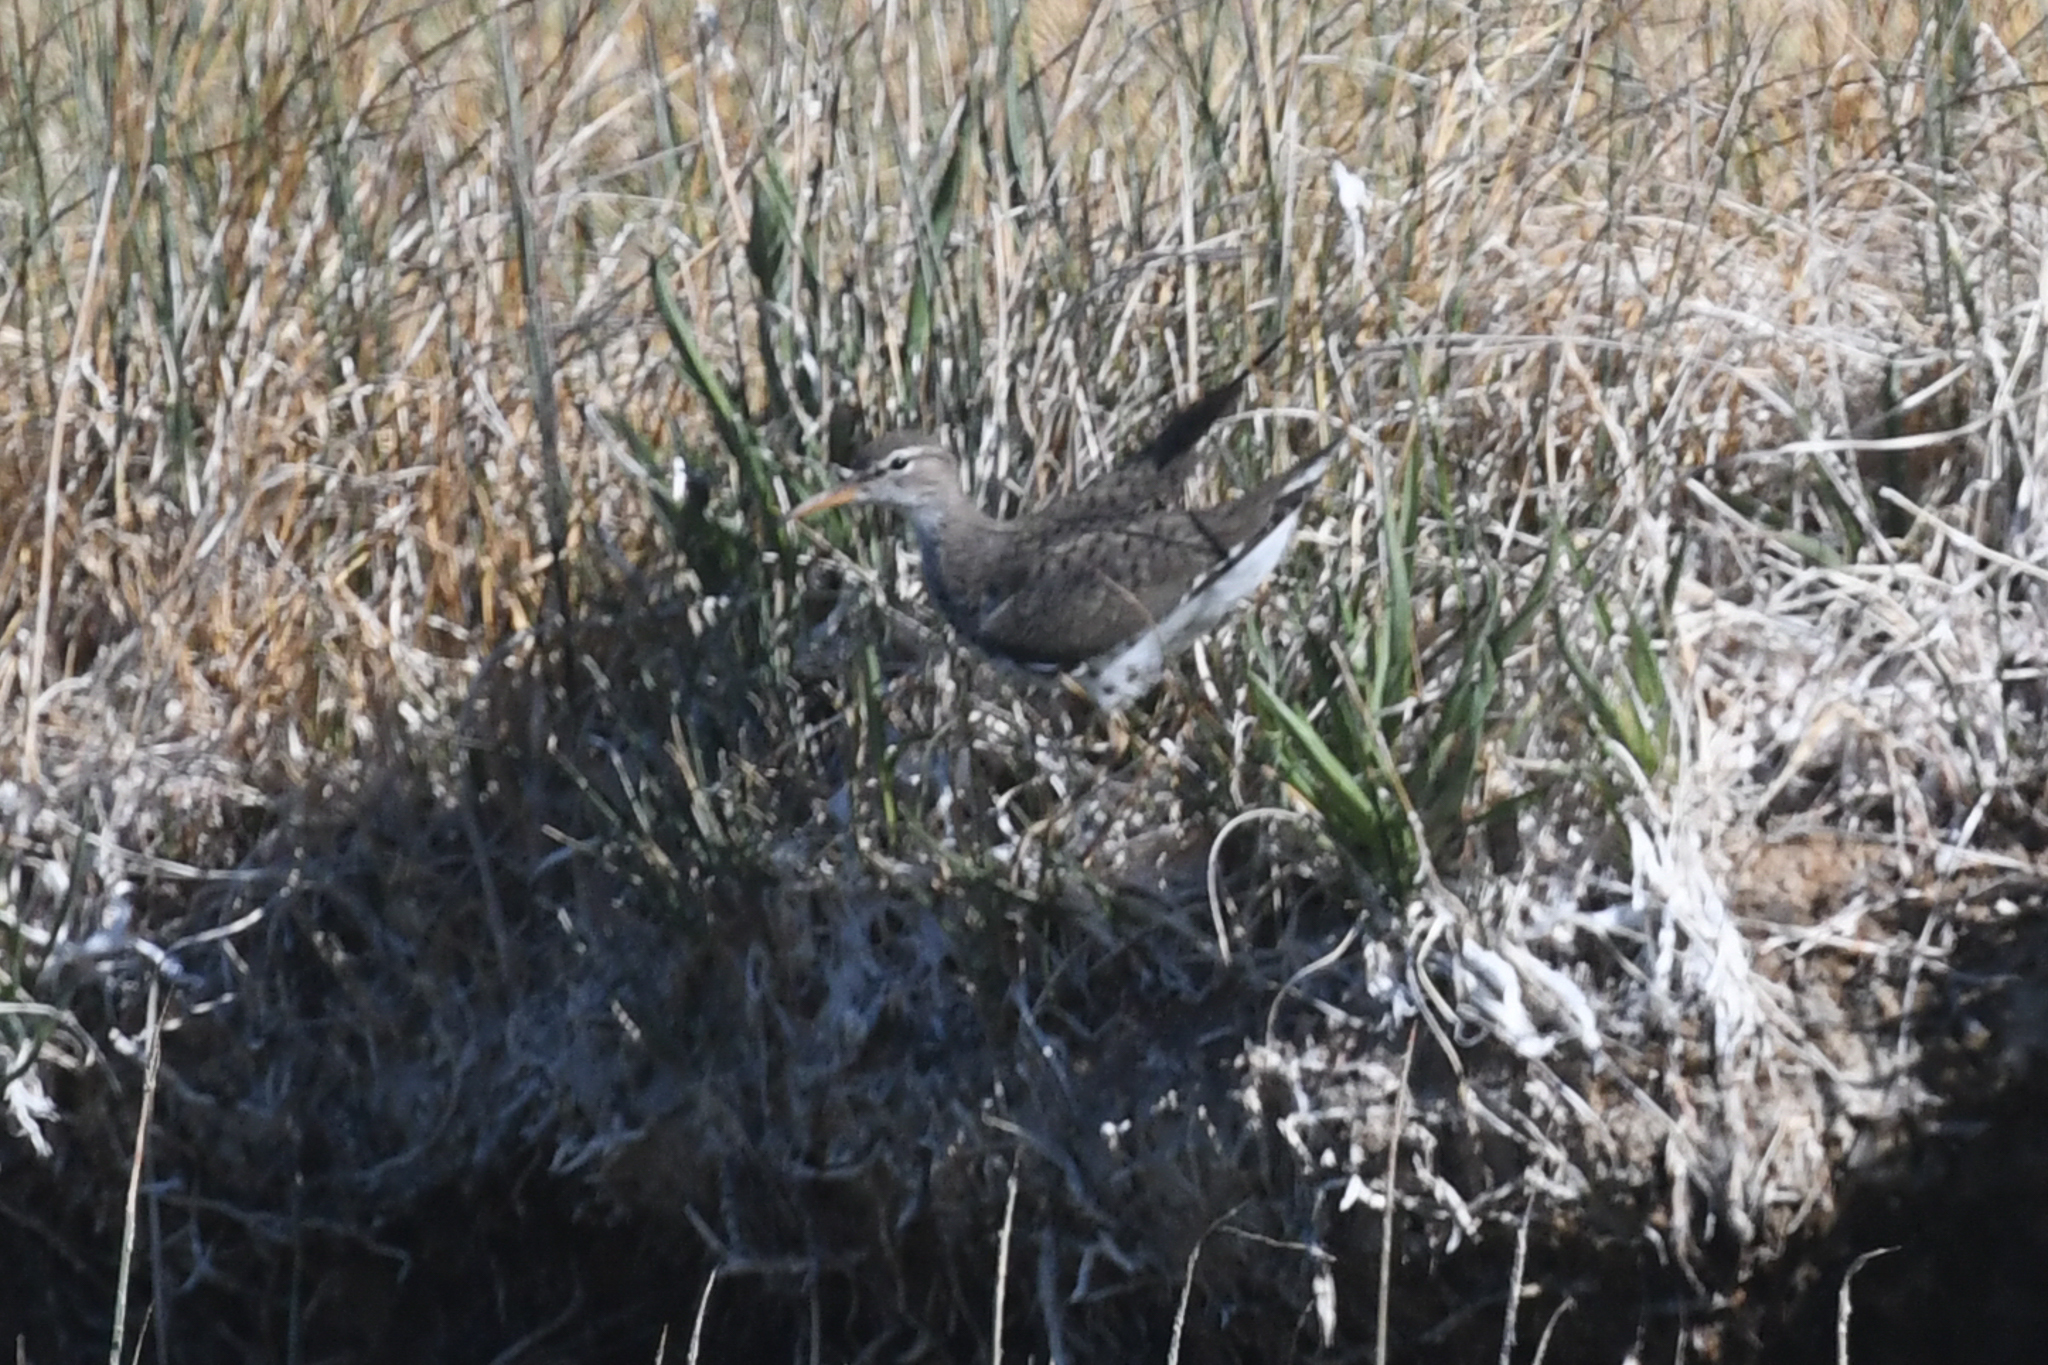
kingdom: Animalia
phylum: Chordata
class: Aves
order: Charadriiformes
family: Scolopacidae
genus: Actitis
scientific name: Actitis macularius
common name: Spotted sandpiper
